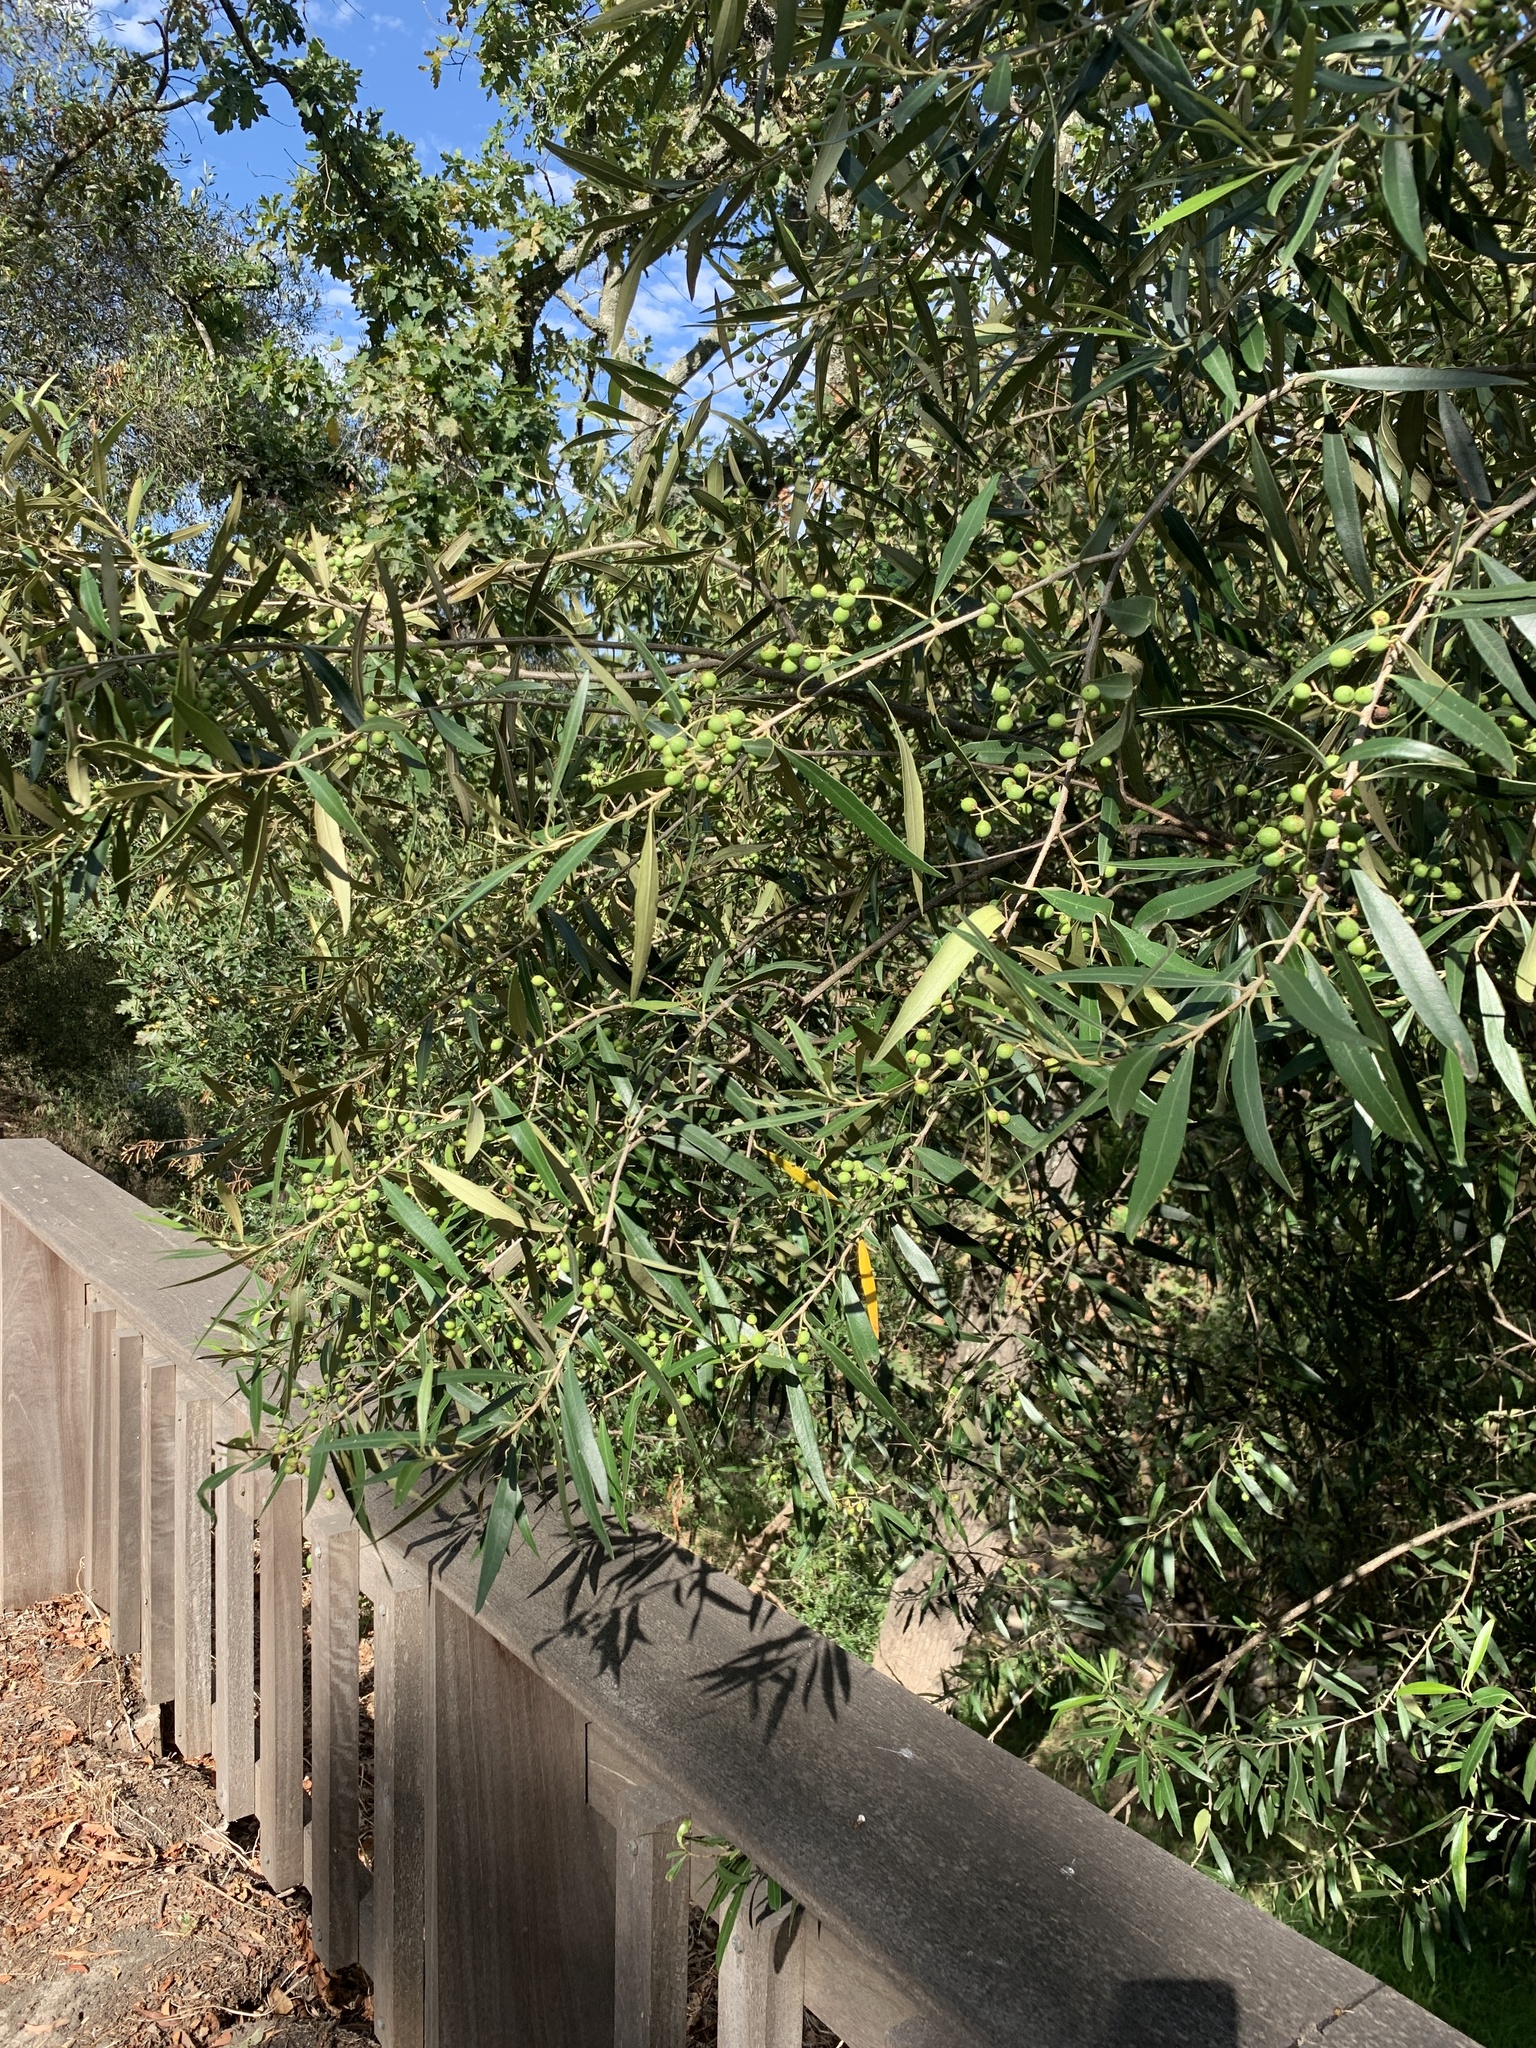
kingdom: Plantae
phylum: Tracheophyta
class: Magnoliopsida
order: Lamiales
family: Oleaceae
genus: Olea
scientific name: Olea europaea
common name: Olive
